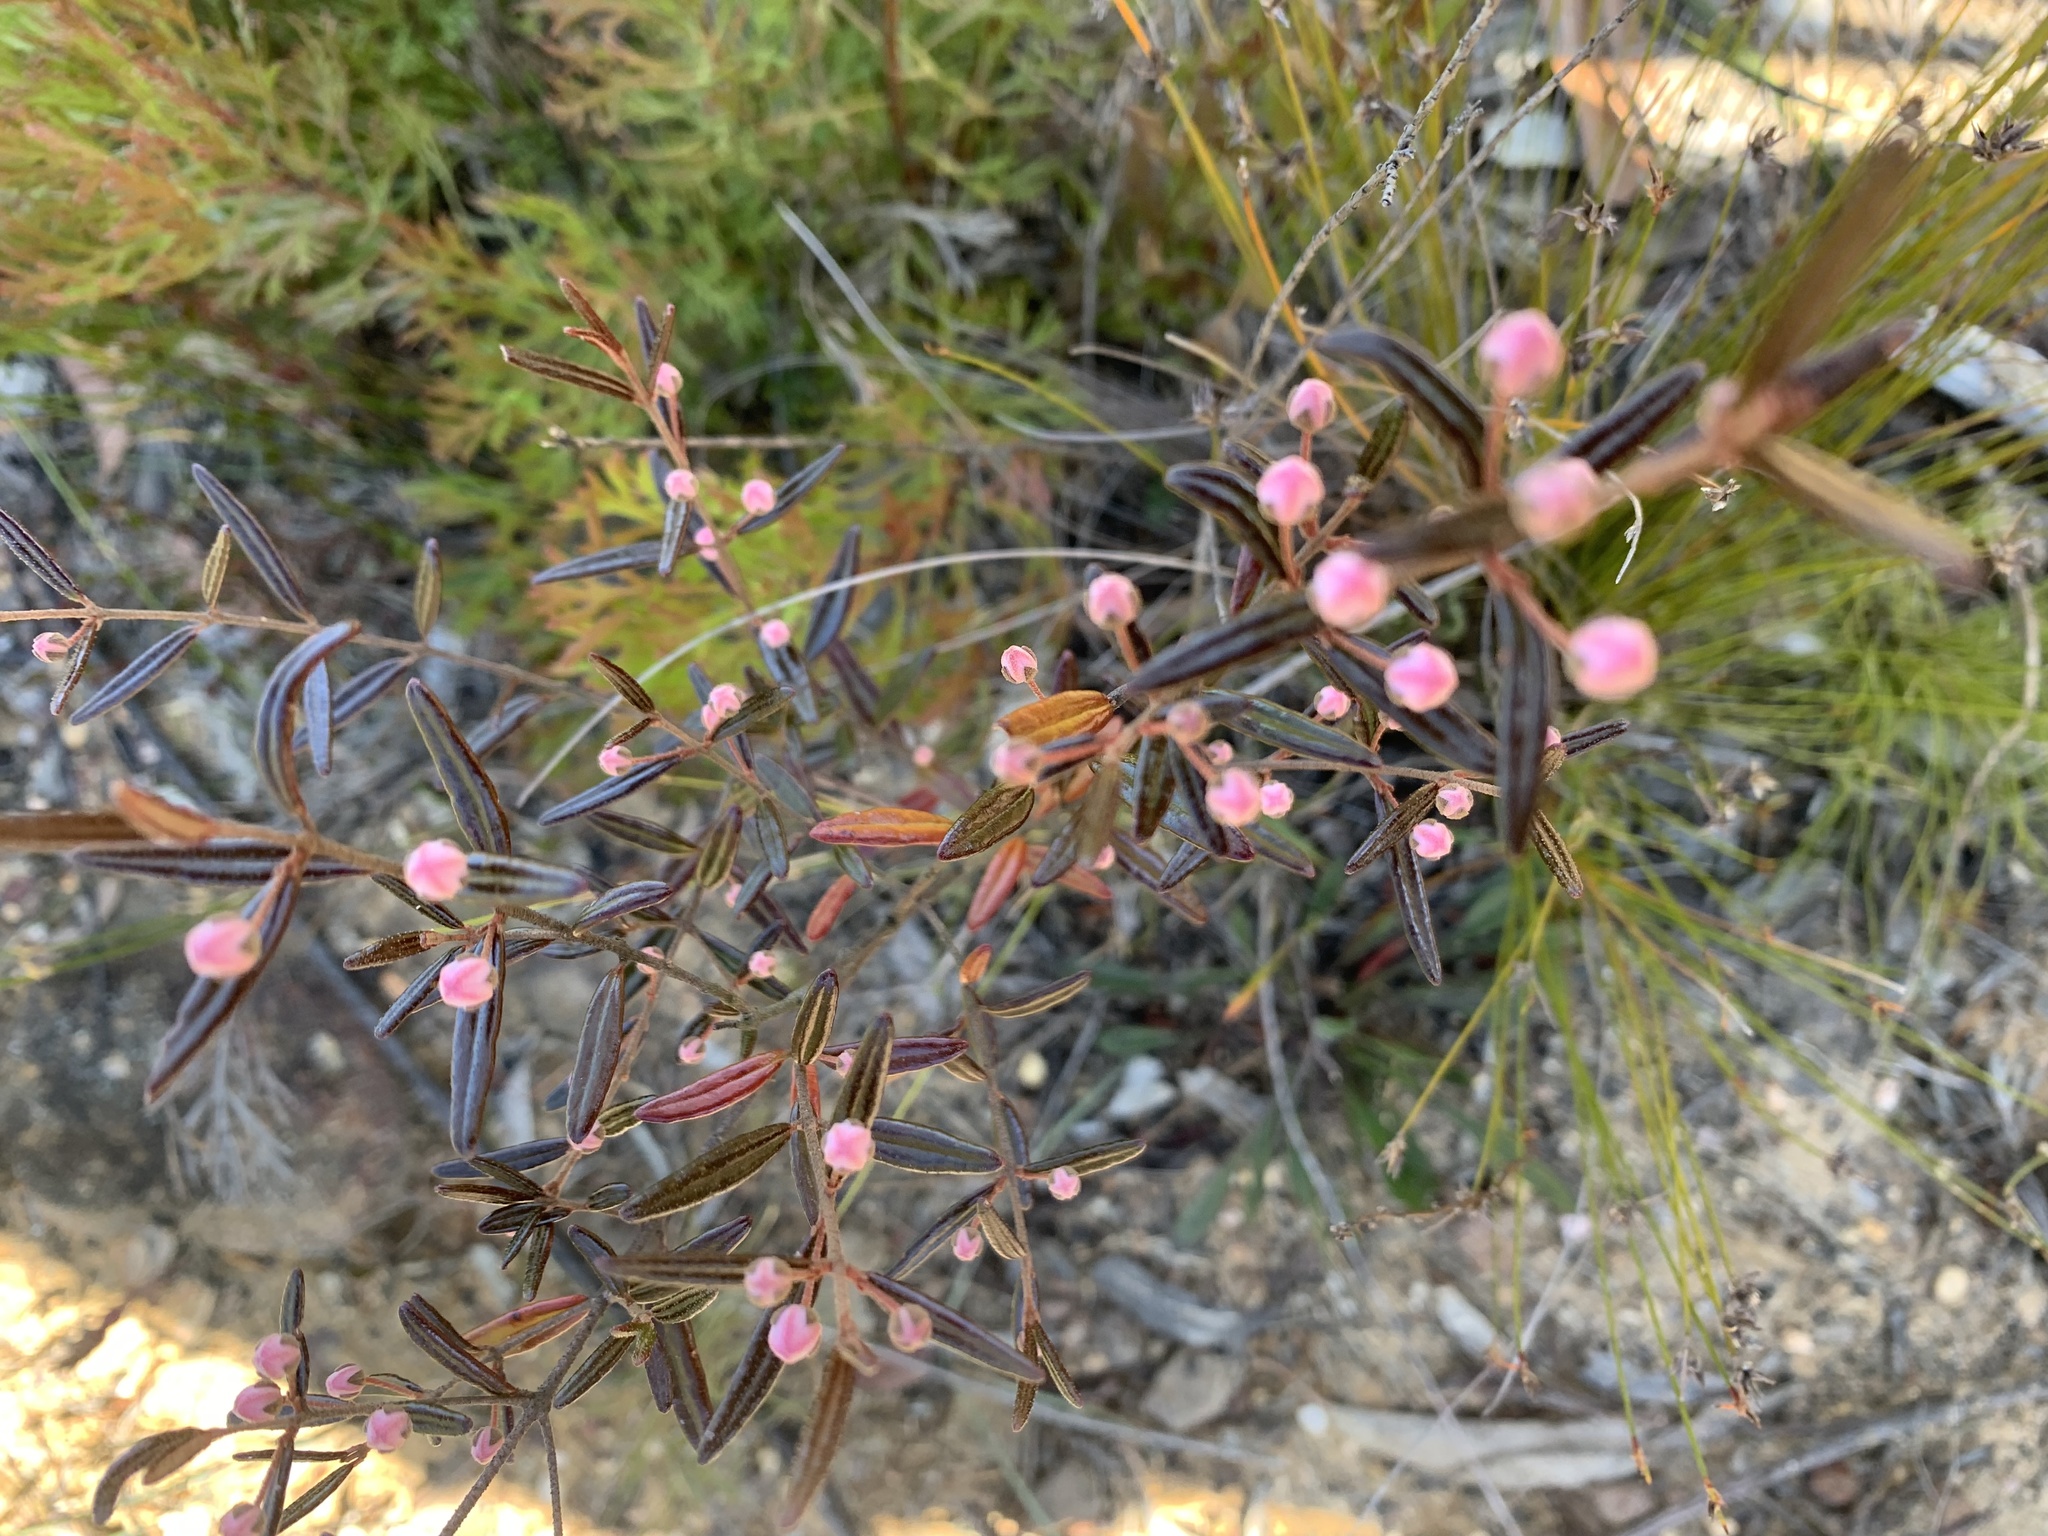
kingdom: Plantae
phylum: Tracheophyta
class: Magnoliopsida
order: Sapindales
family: Rutaceae
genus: Boronia
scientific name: Boronia ledifolia
